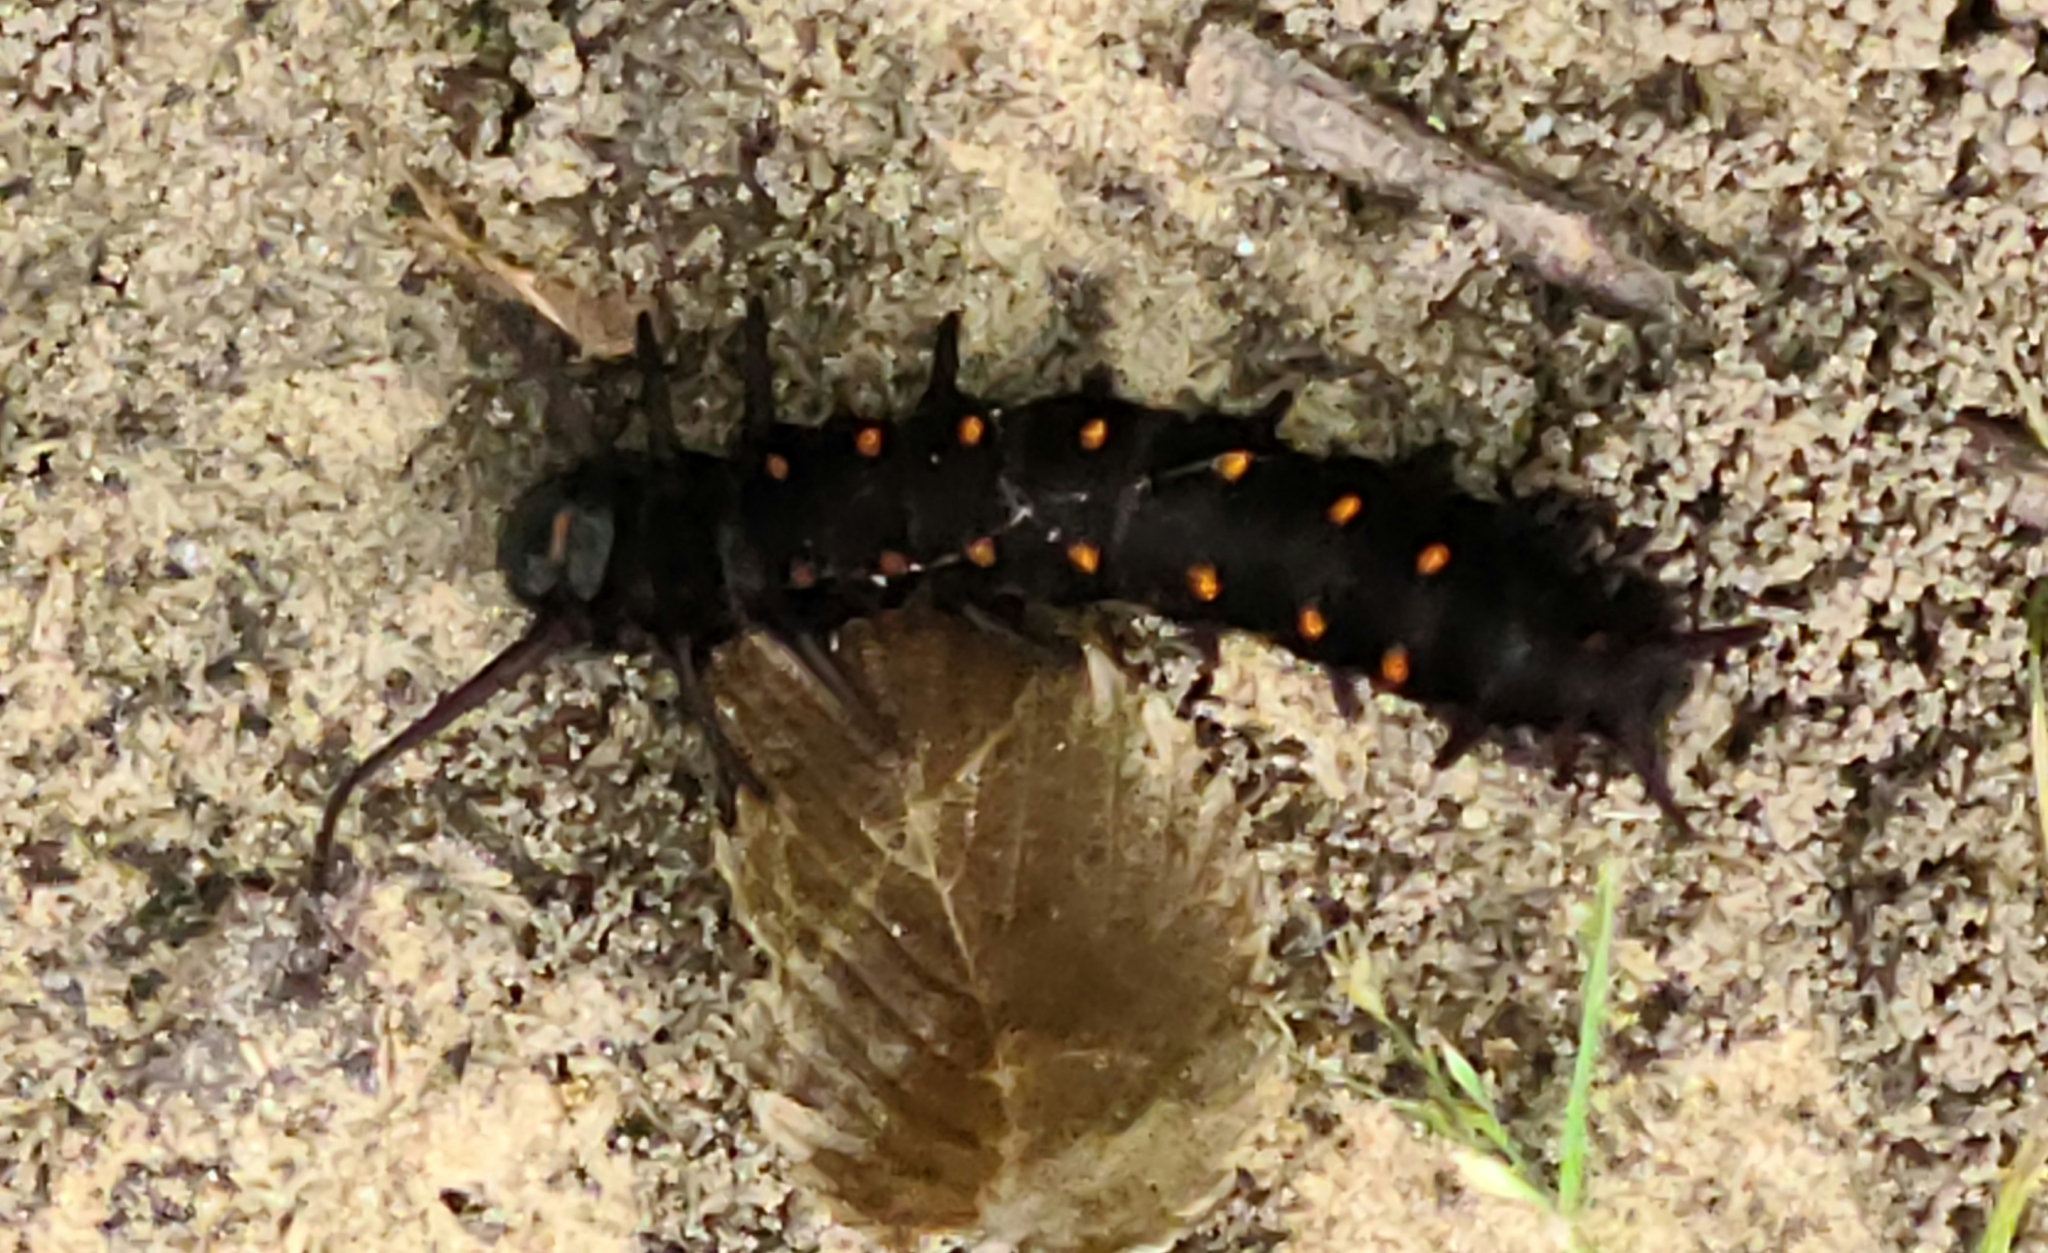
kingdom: Animalia
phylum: Arthropoda
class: Insecta
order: Lepidoptera
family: Papilionidae
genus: Battus
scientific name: Battus philenor
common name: Pipevine swallowtail
